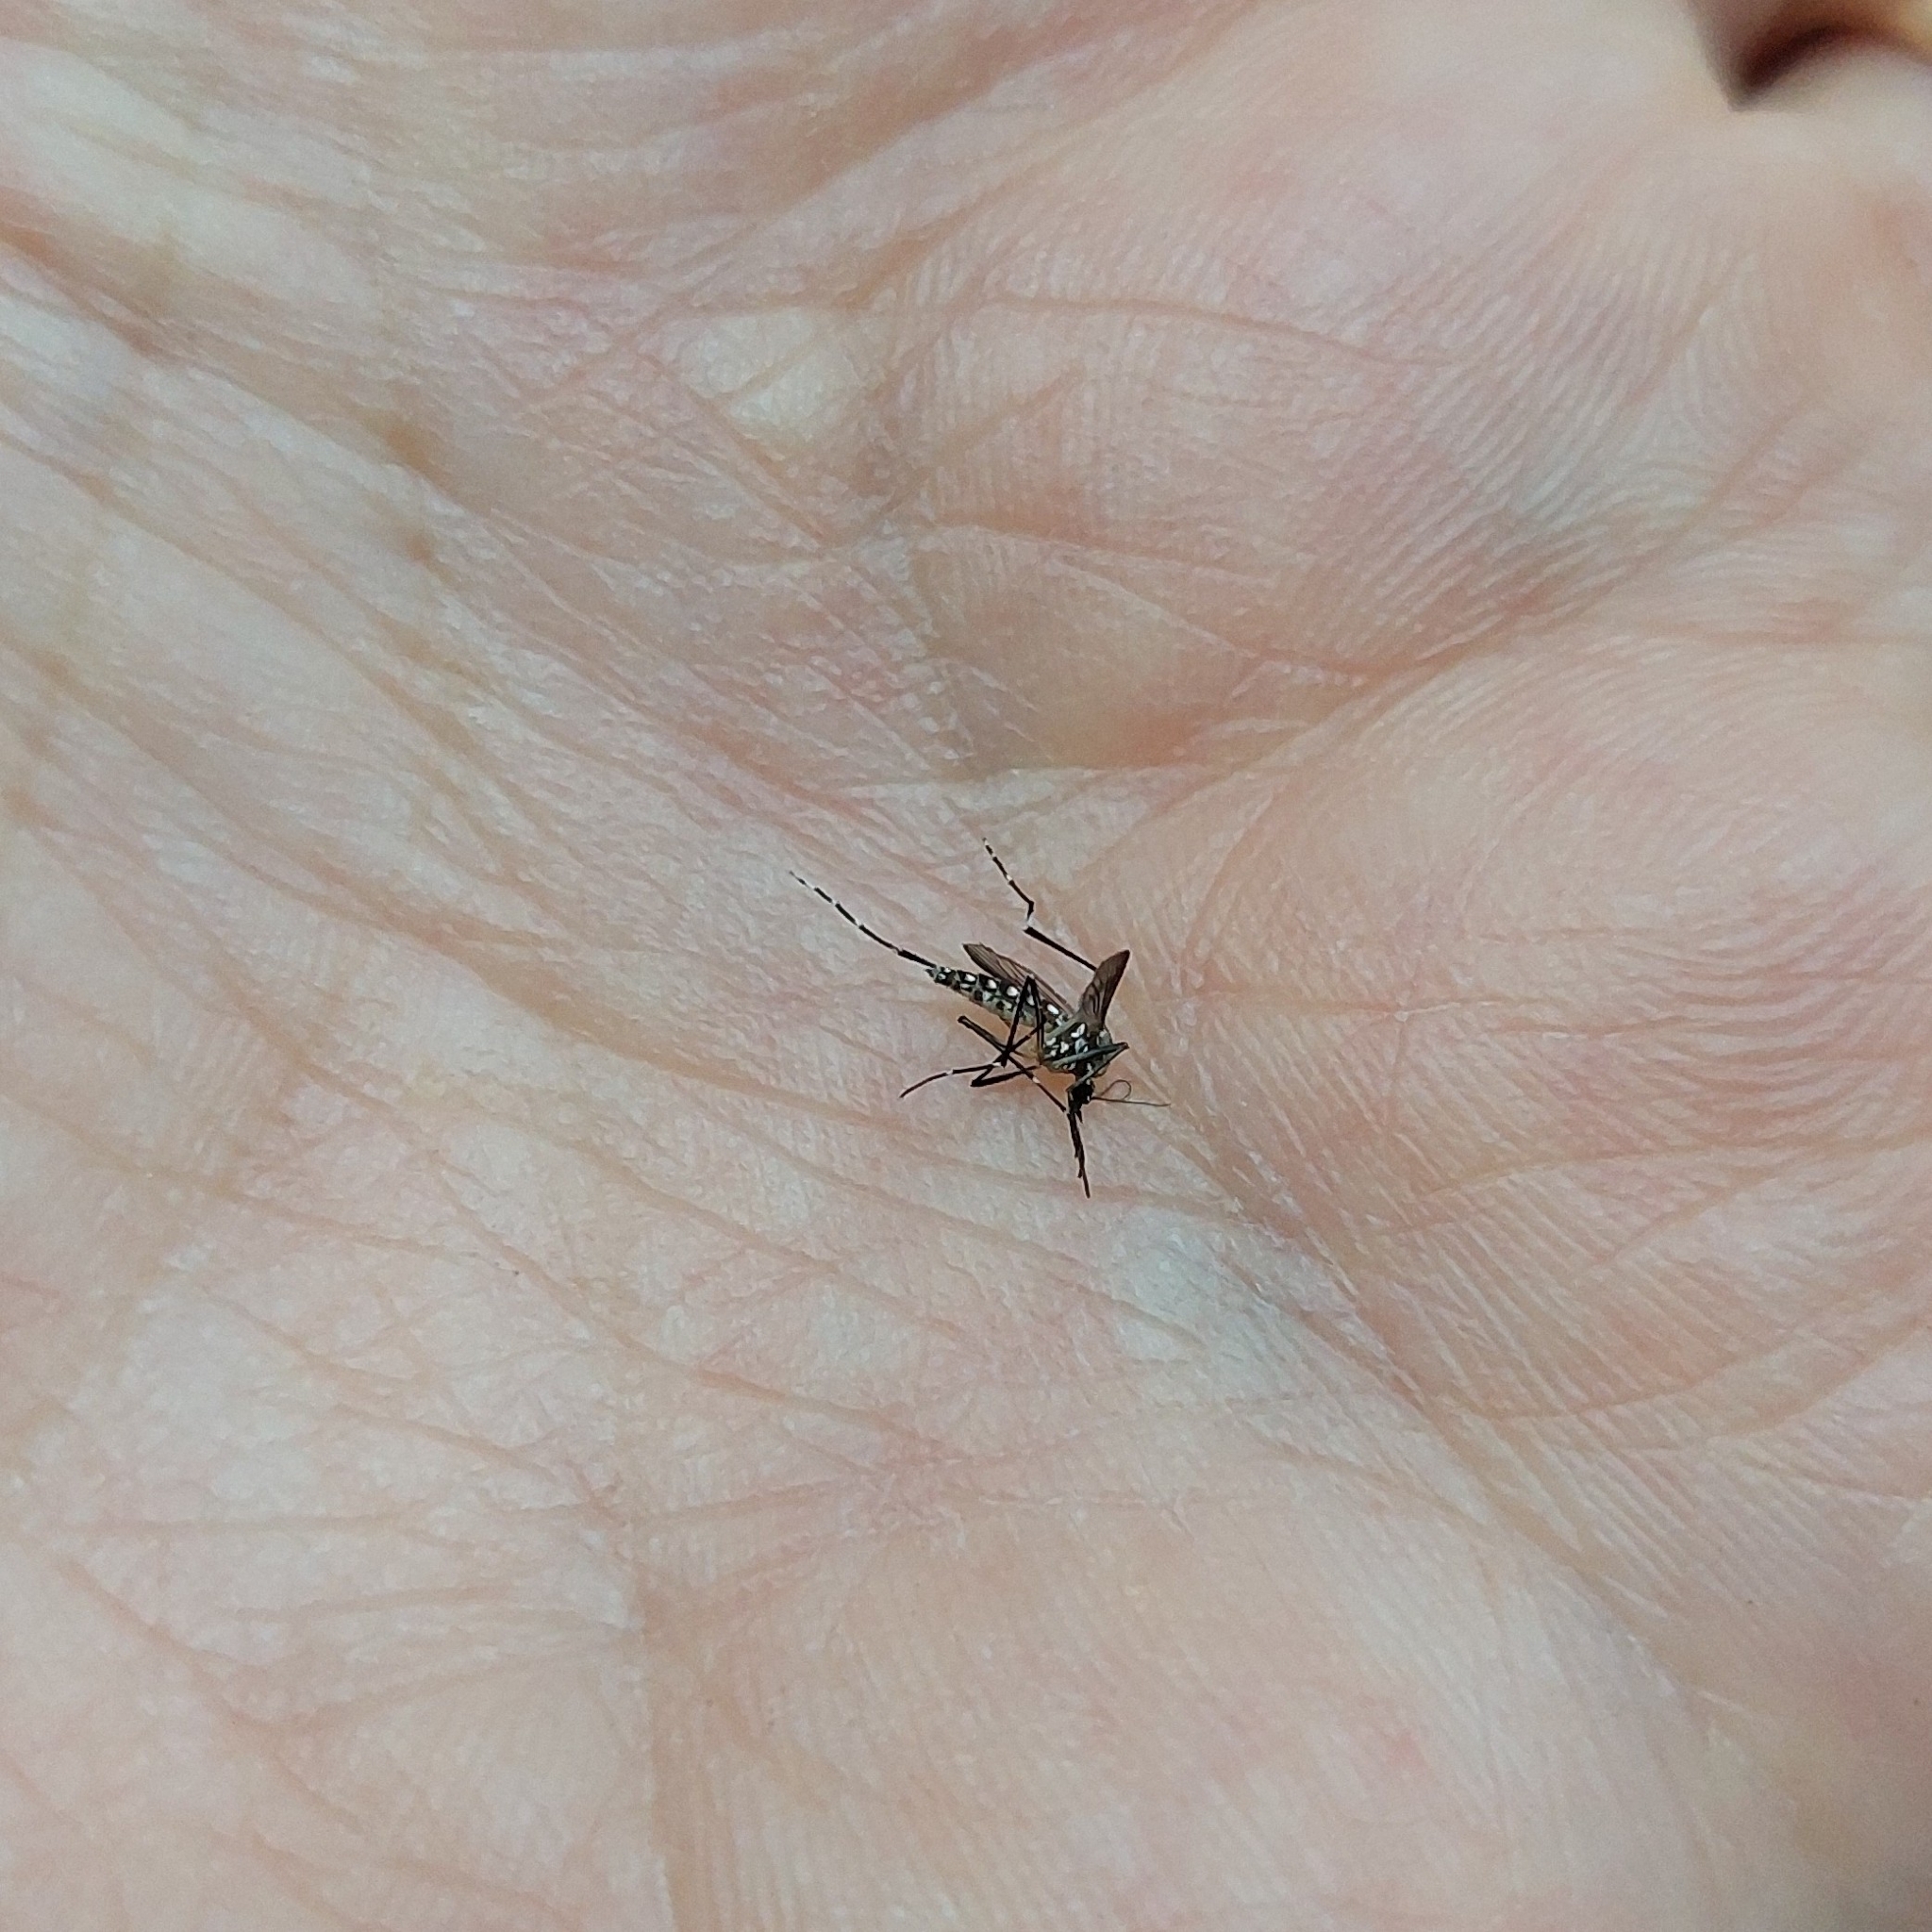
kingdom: Animalia
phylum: Arthropoda
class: Insecta
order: Diptera
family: Culicidae
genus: Aedes
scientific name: Aedes aegypti
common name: Yellow fever mosquito
